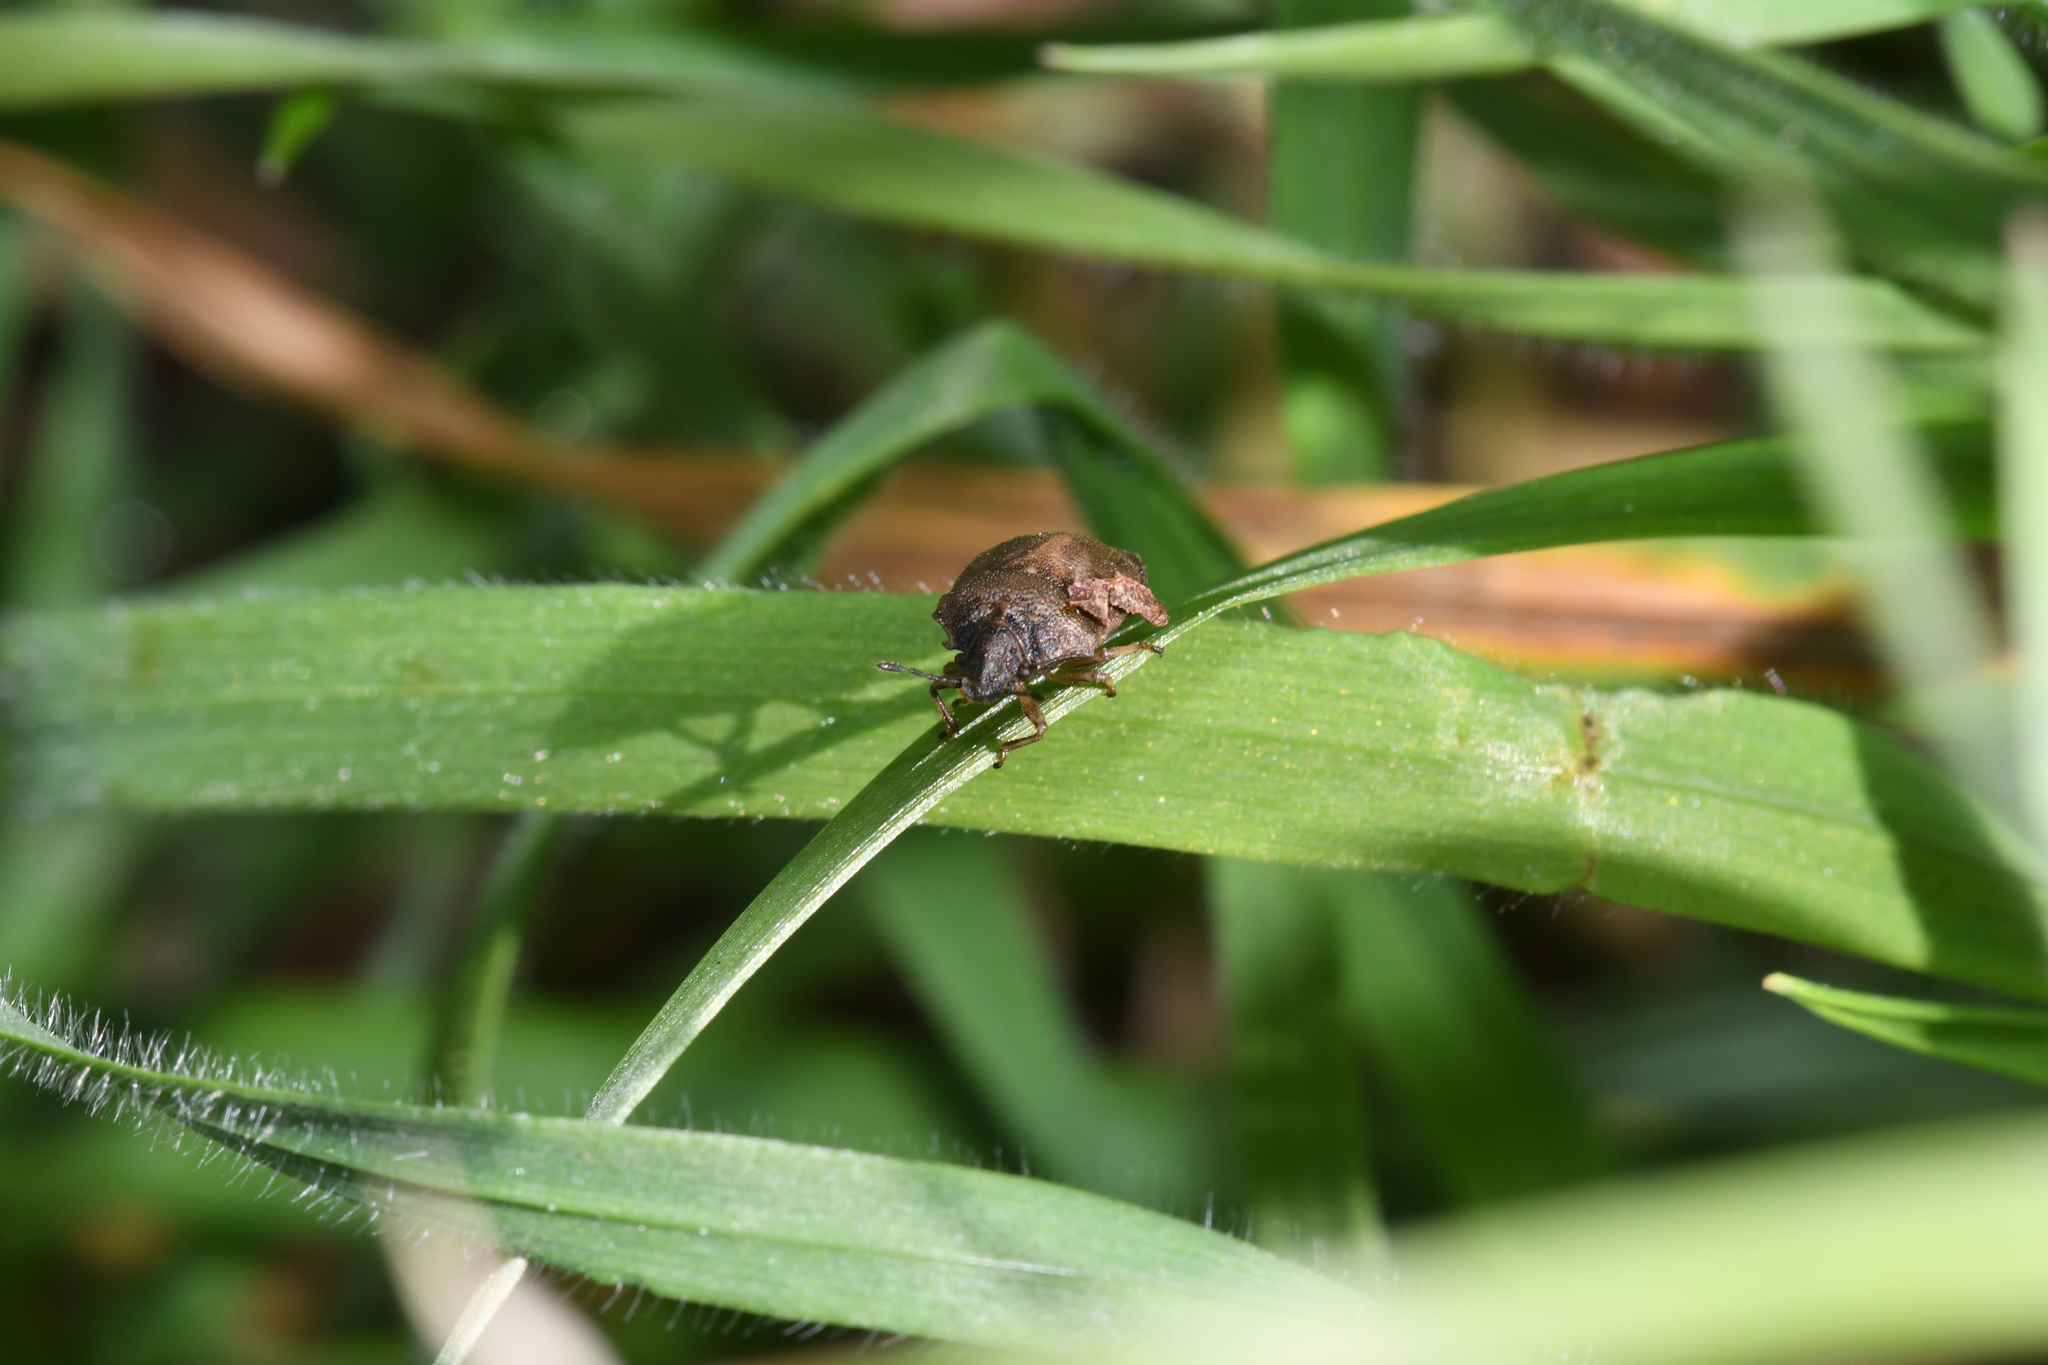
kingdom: Animalia
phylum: Arthropoda
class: Insecta
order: Hemiptera
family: Pentatomidae
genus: Podops
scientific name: Podops inunctus
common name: Turtle bug
